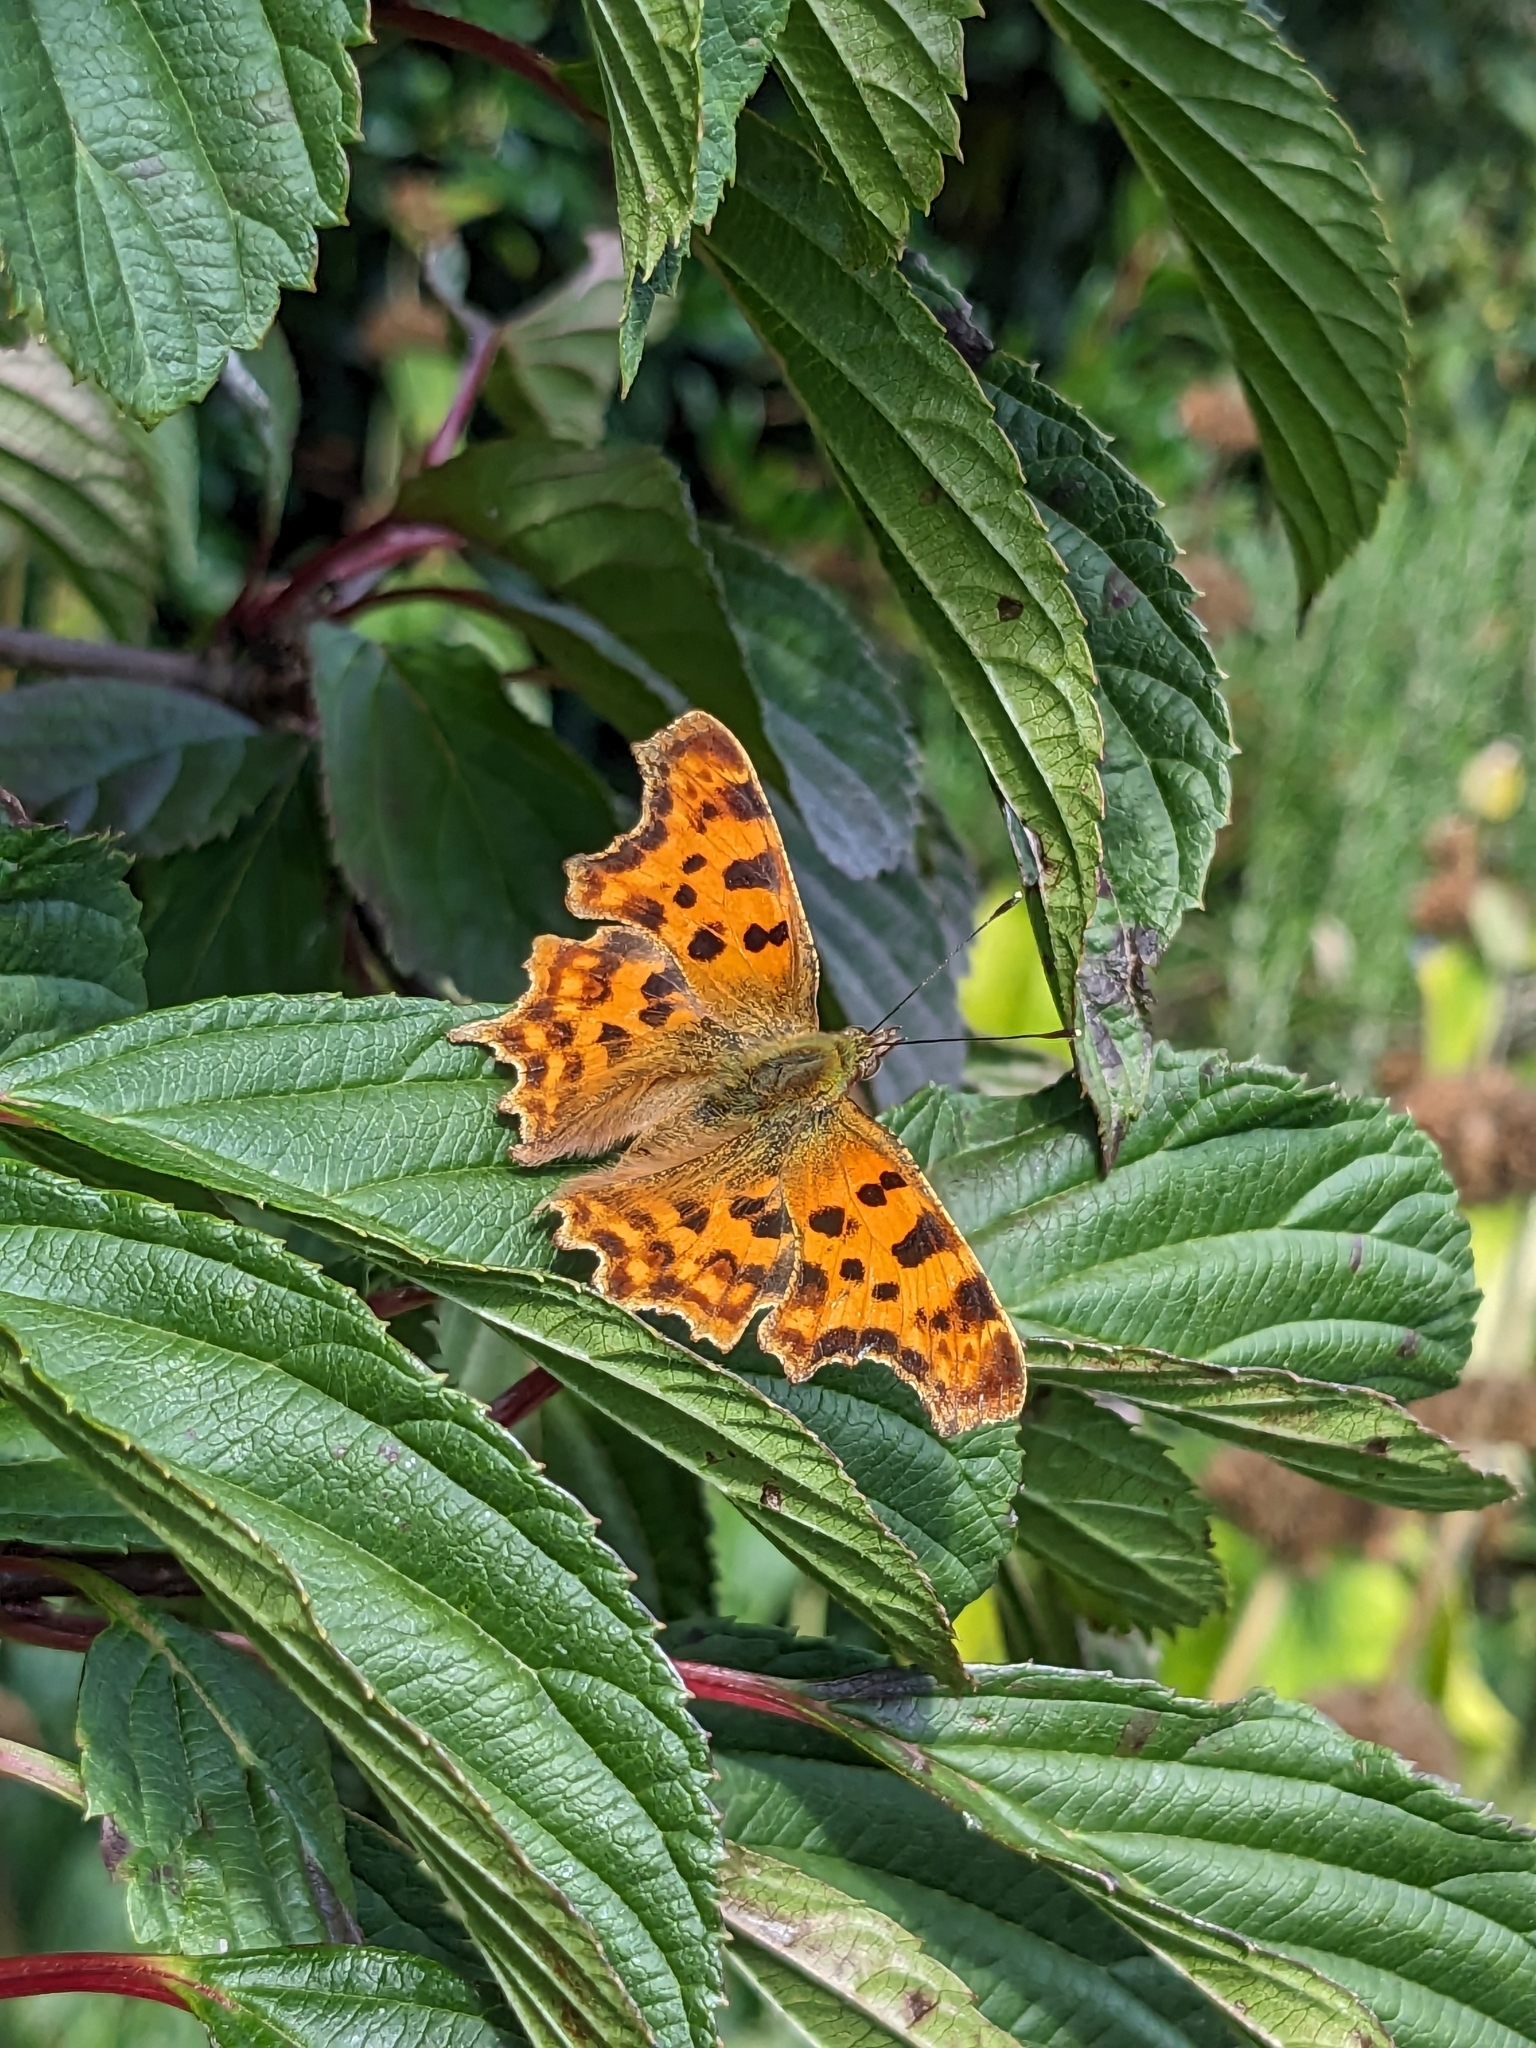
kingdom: Animalia
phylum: Arthropoda
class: Insecta
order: Lepidoptera
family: Nymphalidae
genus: Polygonia
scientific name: Polygonia c-album
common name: Comma
